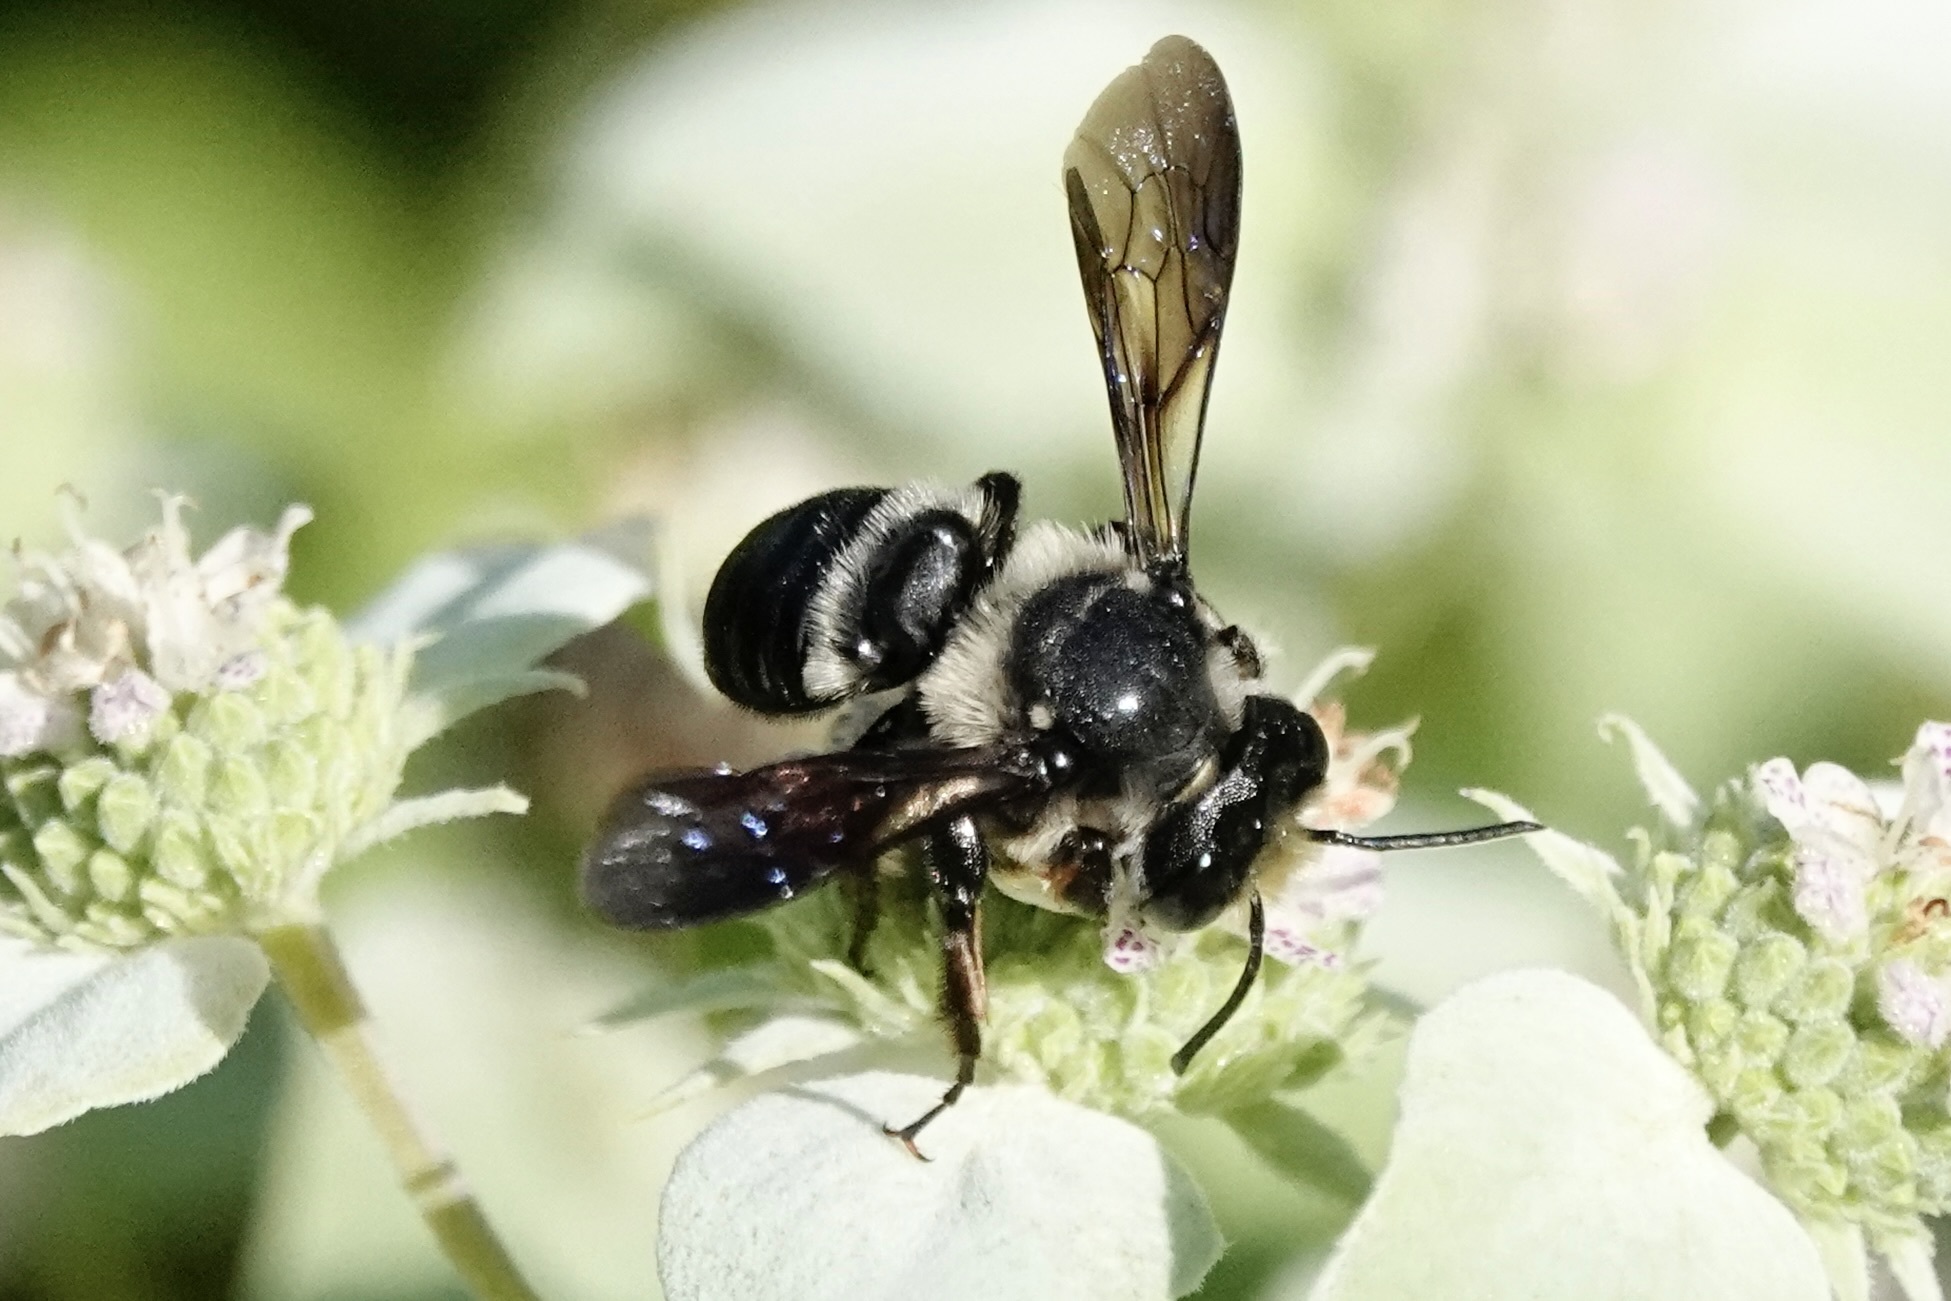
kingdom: Animalia
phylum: Arthropoda
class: Insecta
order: Hymenoptera
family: Megachilidae
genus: Megachile
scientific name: Megachile xylocopoides
